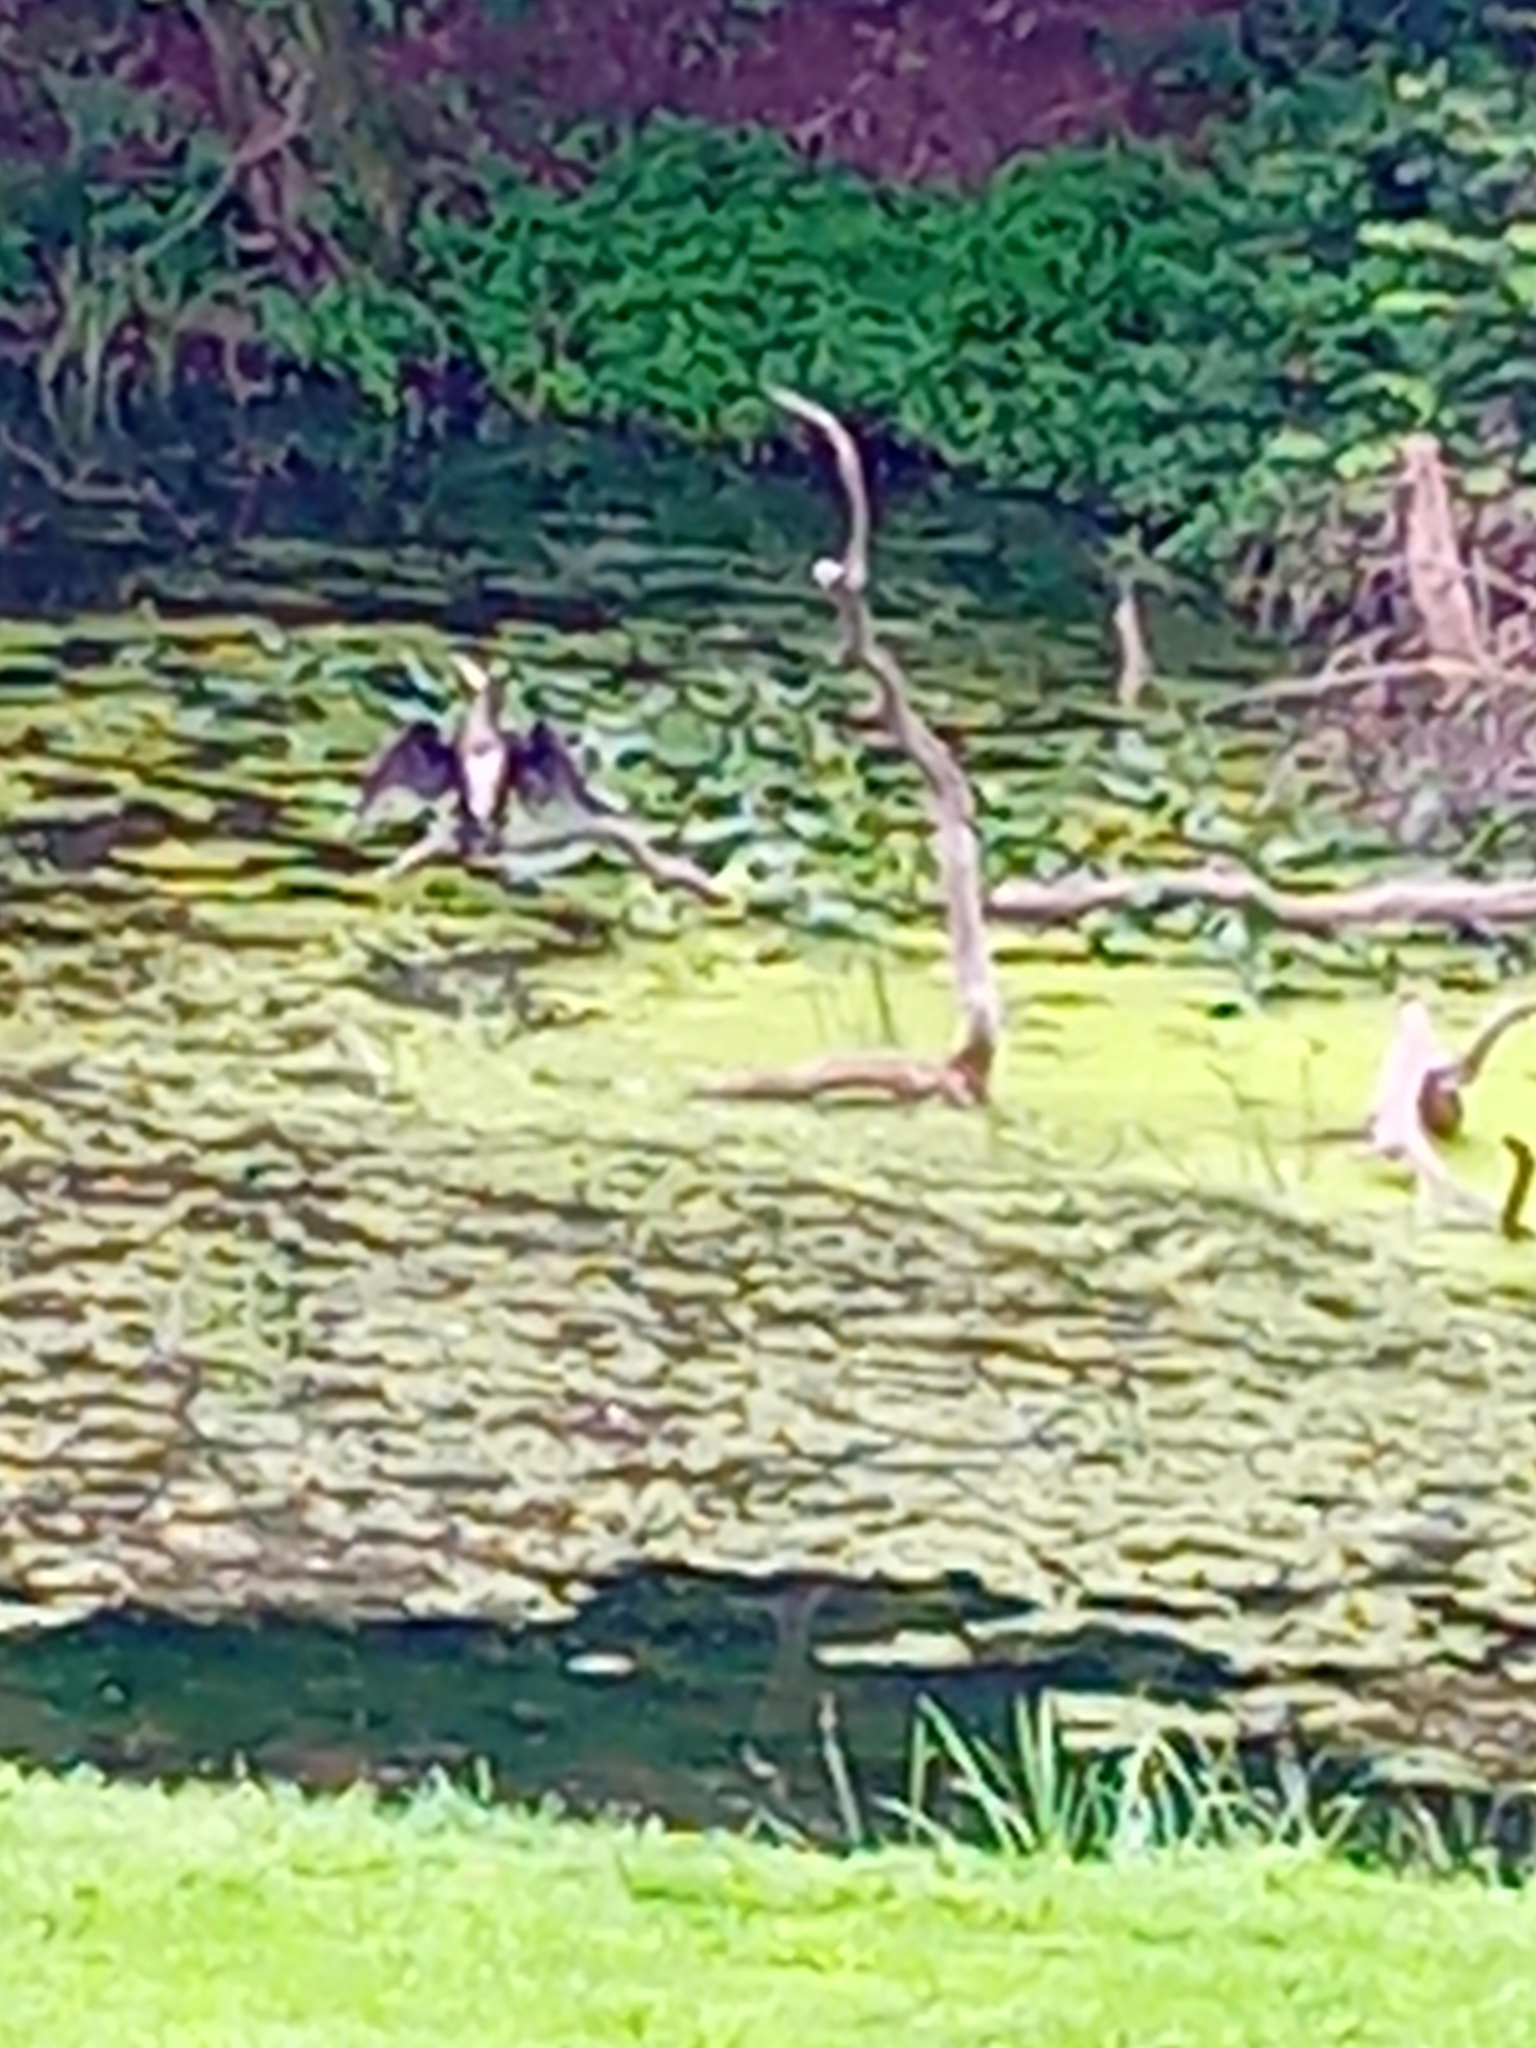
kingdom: Animalia
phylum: Chordata
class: Aves
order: Suliformes
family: Phalacrocoracidae
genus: Phalacrocorax
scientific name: Phalacrocorax carbo
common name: Great cormorant
